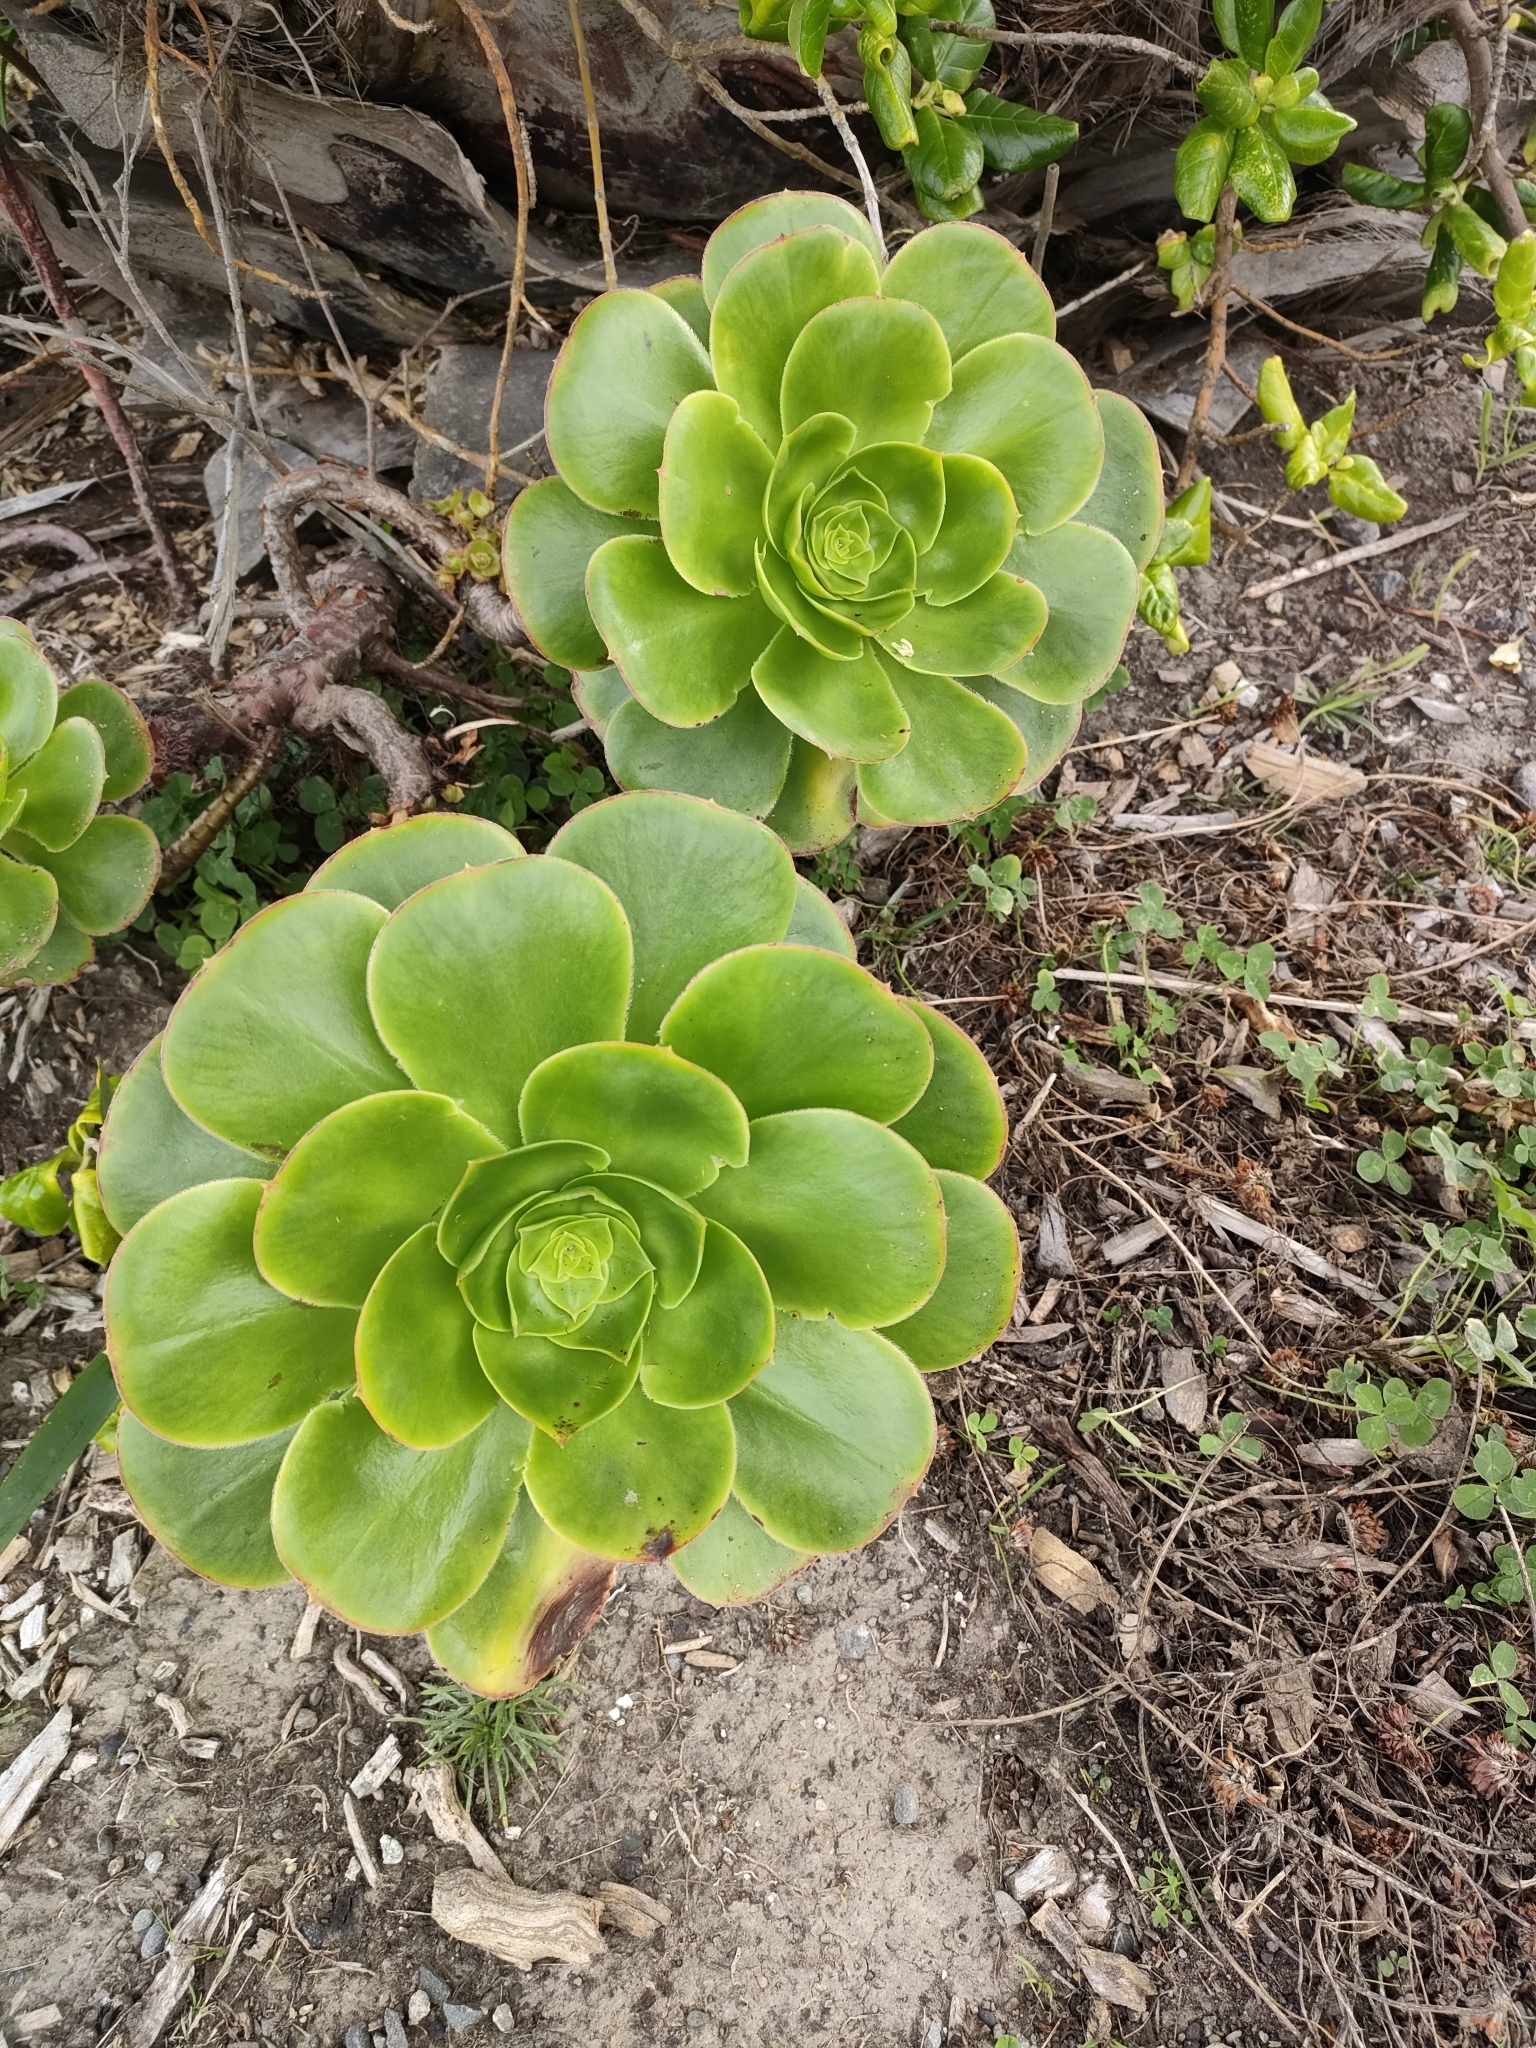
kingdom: Plantae
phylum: Tracheophyta
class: Magnoliopsida
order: Saxifragales
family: Crassulaceae
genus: Aeonium
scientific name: Aeonium arboreum
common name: Tree aeonium
